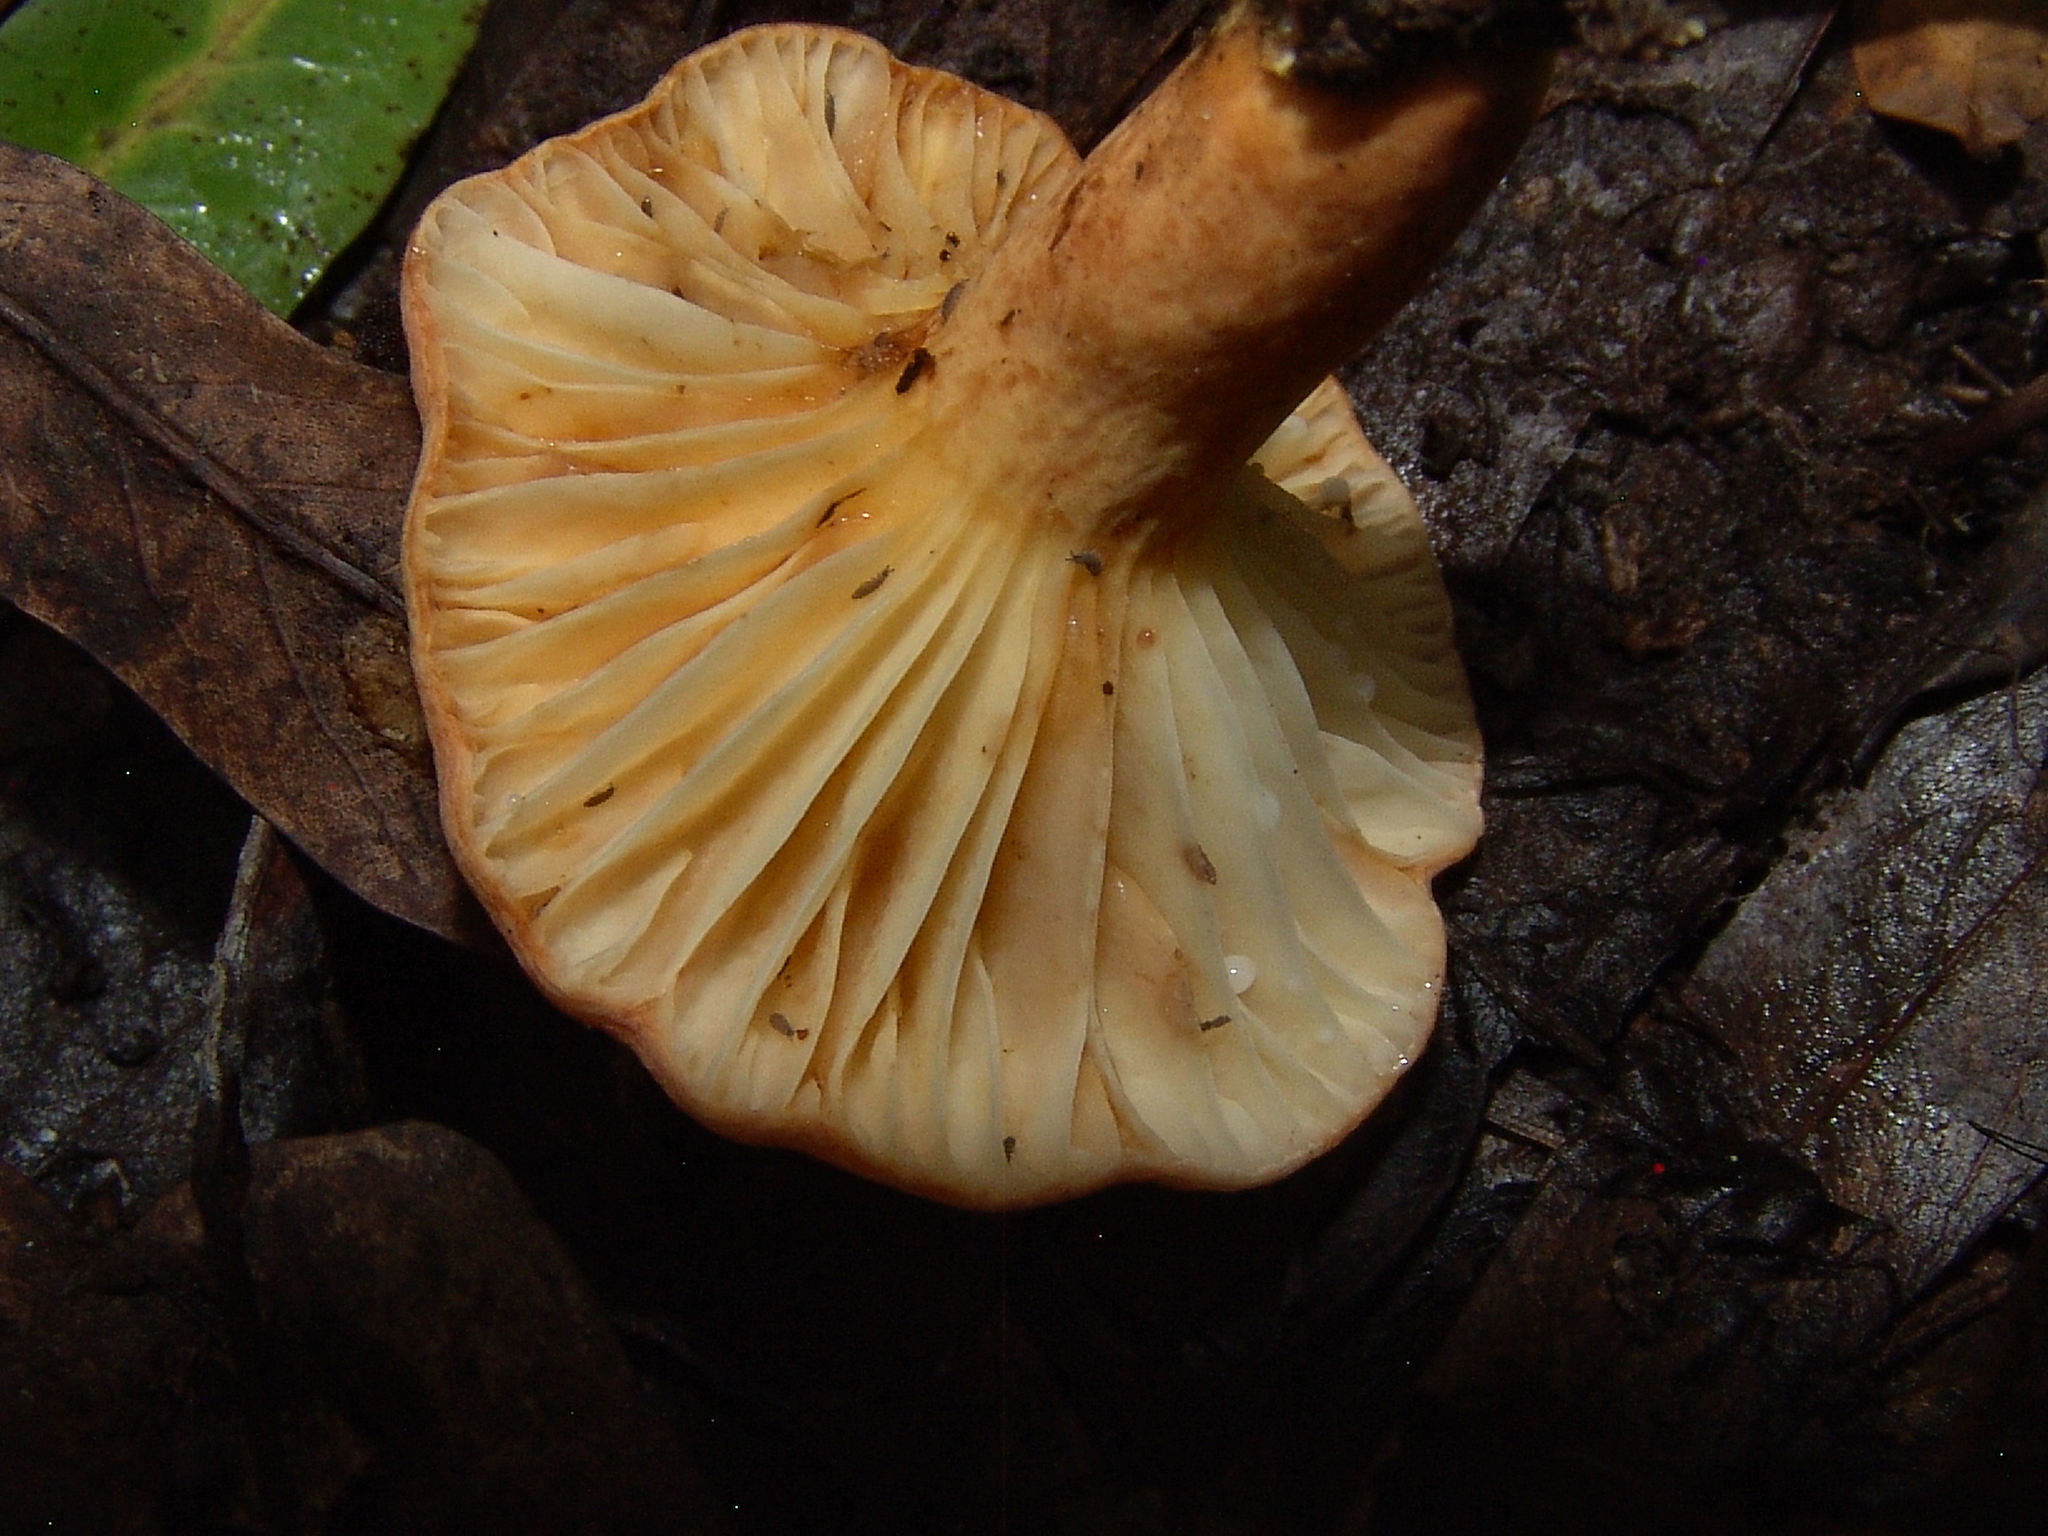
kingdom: Fungi
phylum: Basidiomycota
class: Agaricomycetes
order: Russulales
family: Russulaceae
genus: Lactarius
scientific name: Lactarius hygrophoroides
